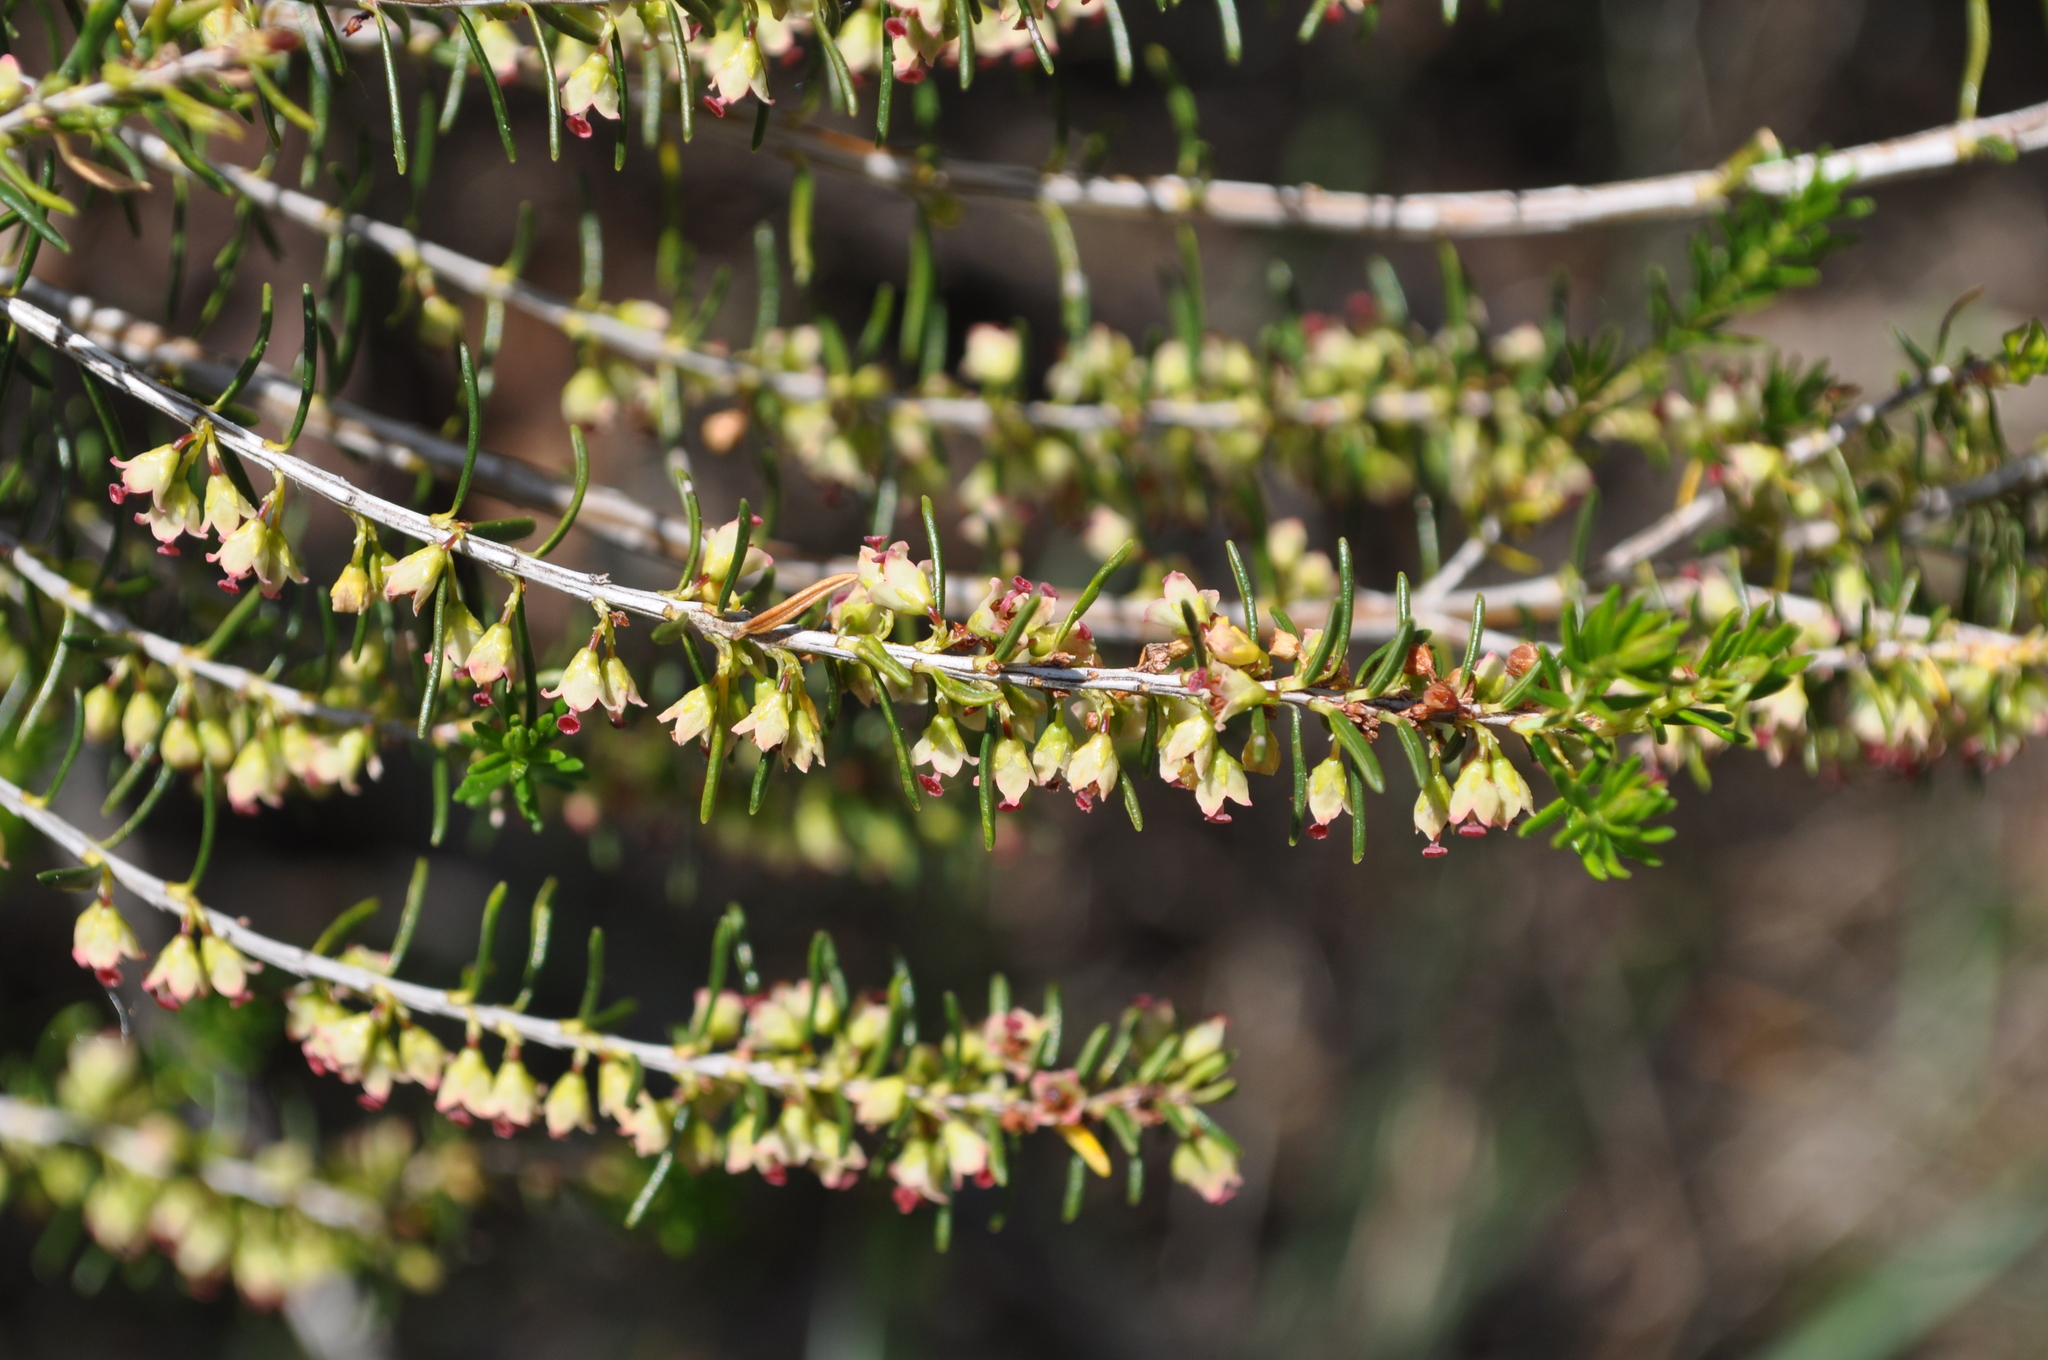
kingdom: Plantae
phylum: Tracheophyta
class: Magnoliopsida
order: Ericales
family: Ericaceae
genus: Erica
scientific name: Erica scoparia
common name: Green heather
